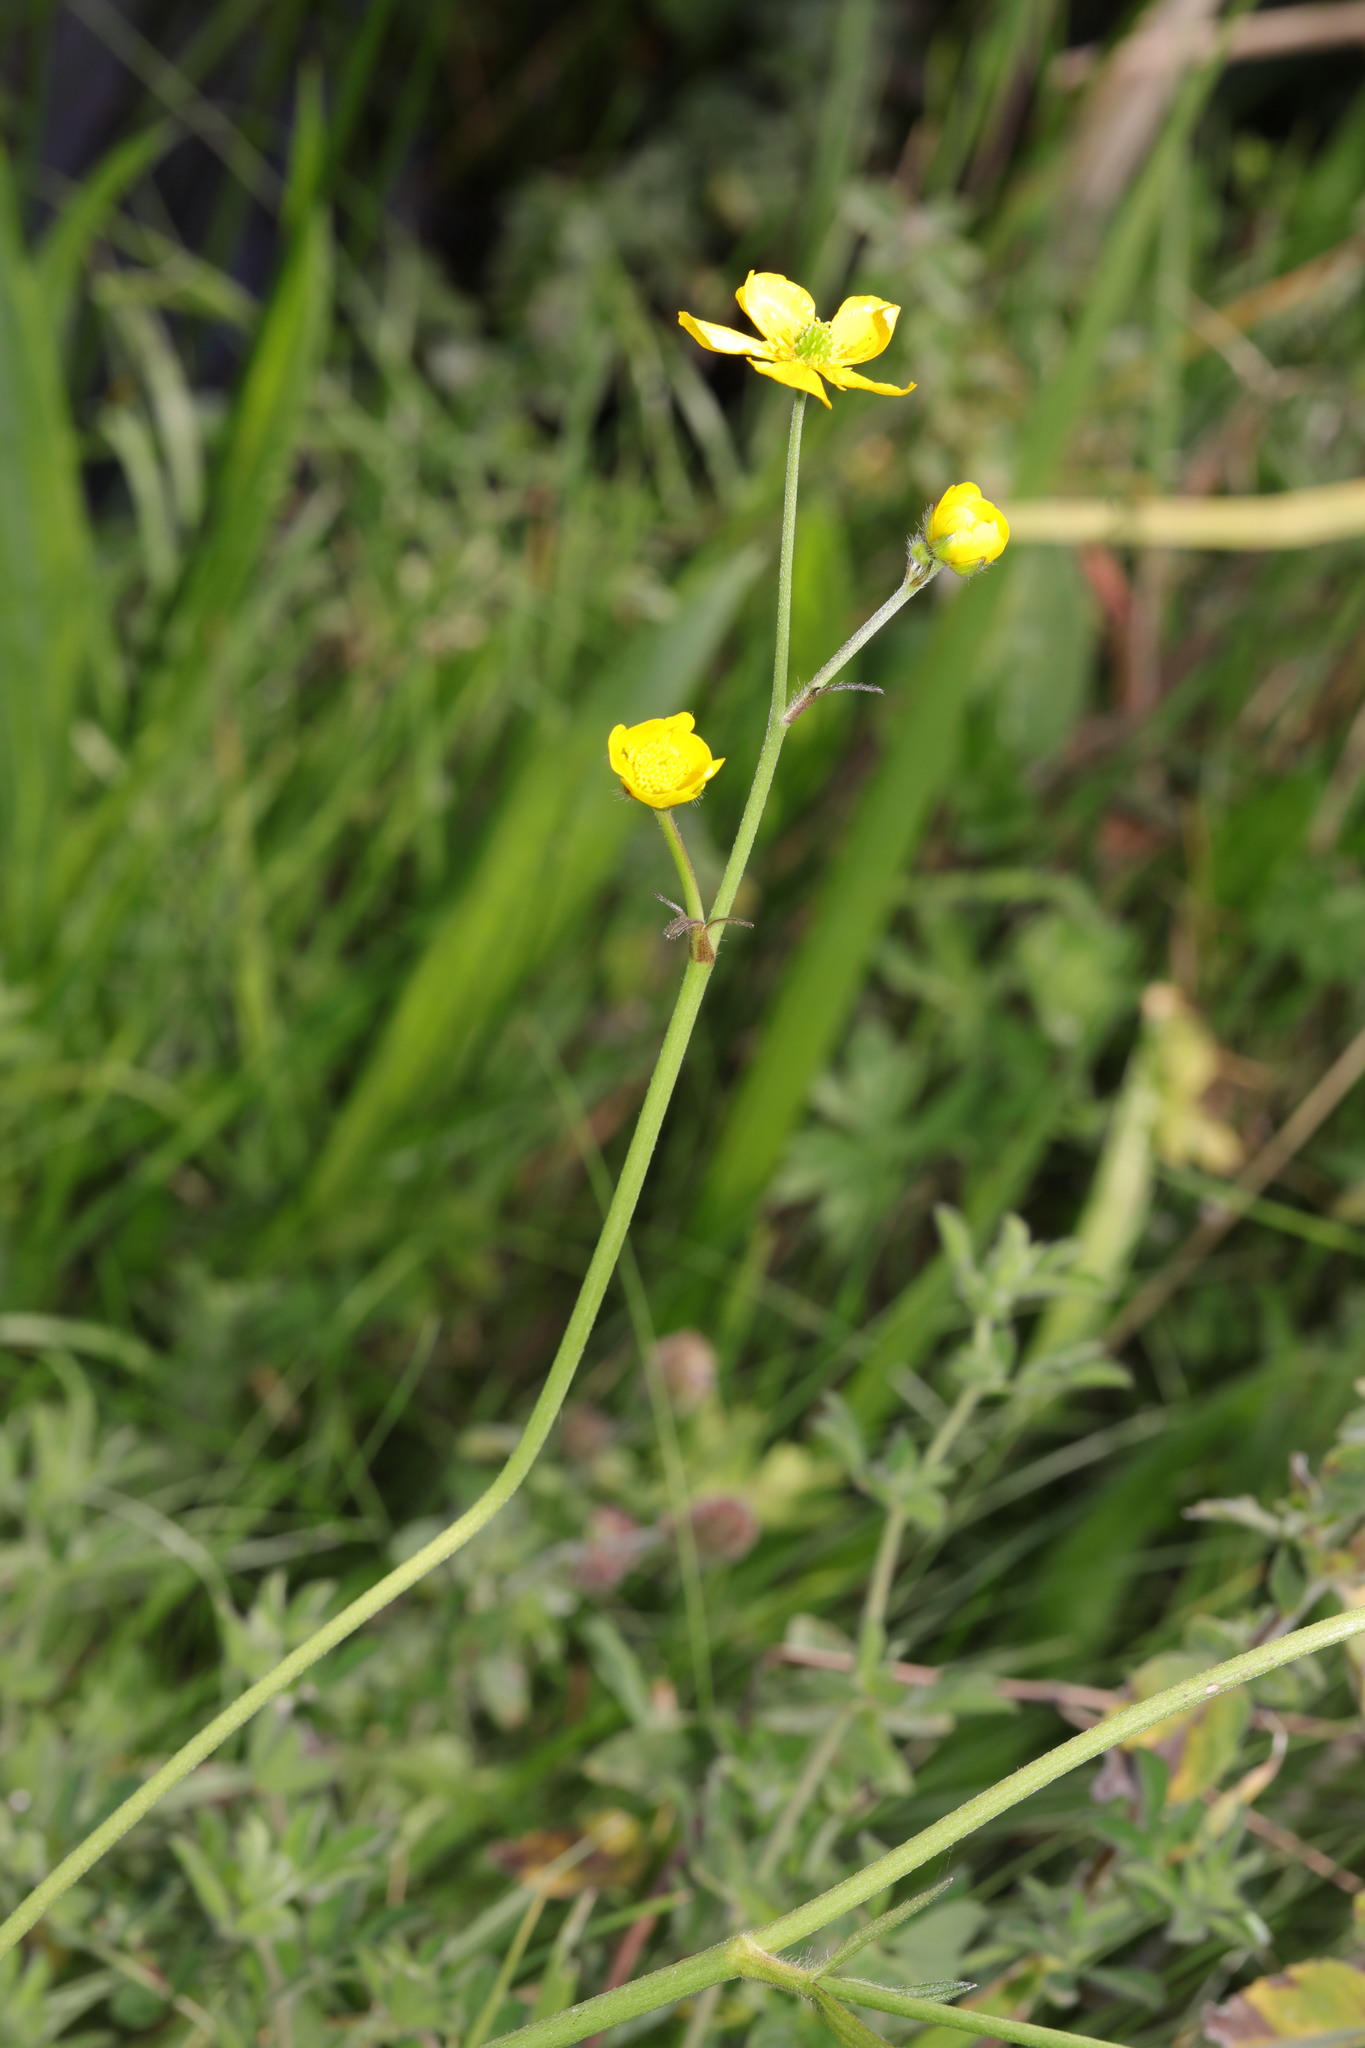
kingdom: Plantae
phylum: Tracheophyta
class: Magnoliopsida
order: Ranunculales
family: Ranunculaceae
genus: Ranunculus
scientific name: Ranunculus acris
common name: Meadow buttercup
